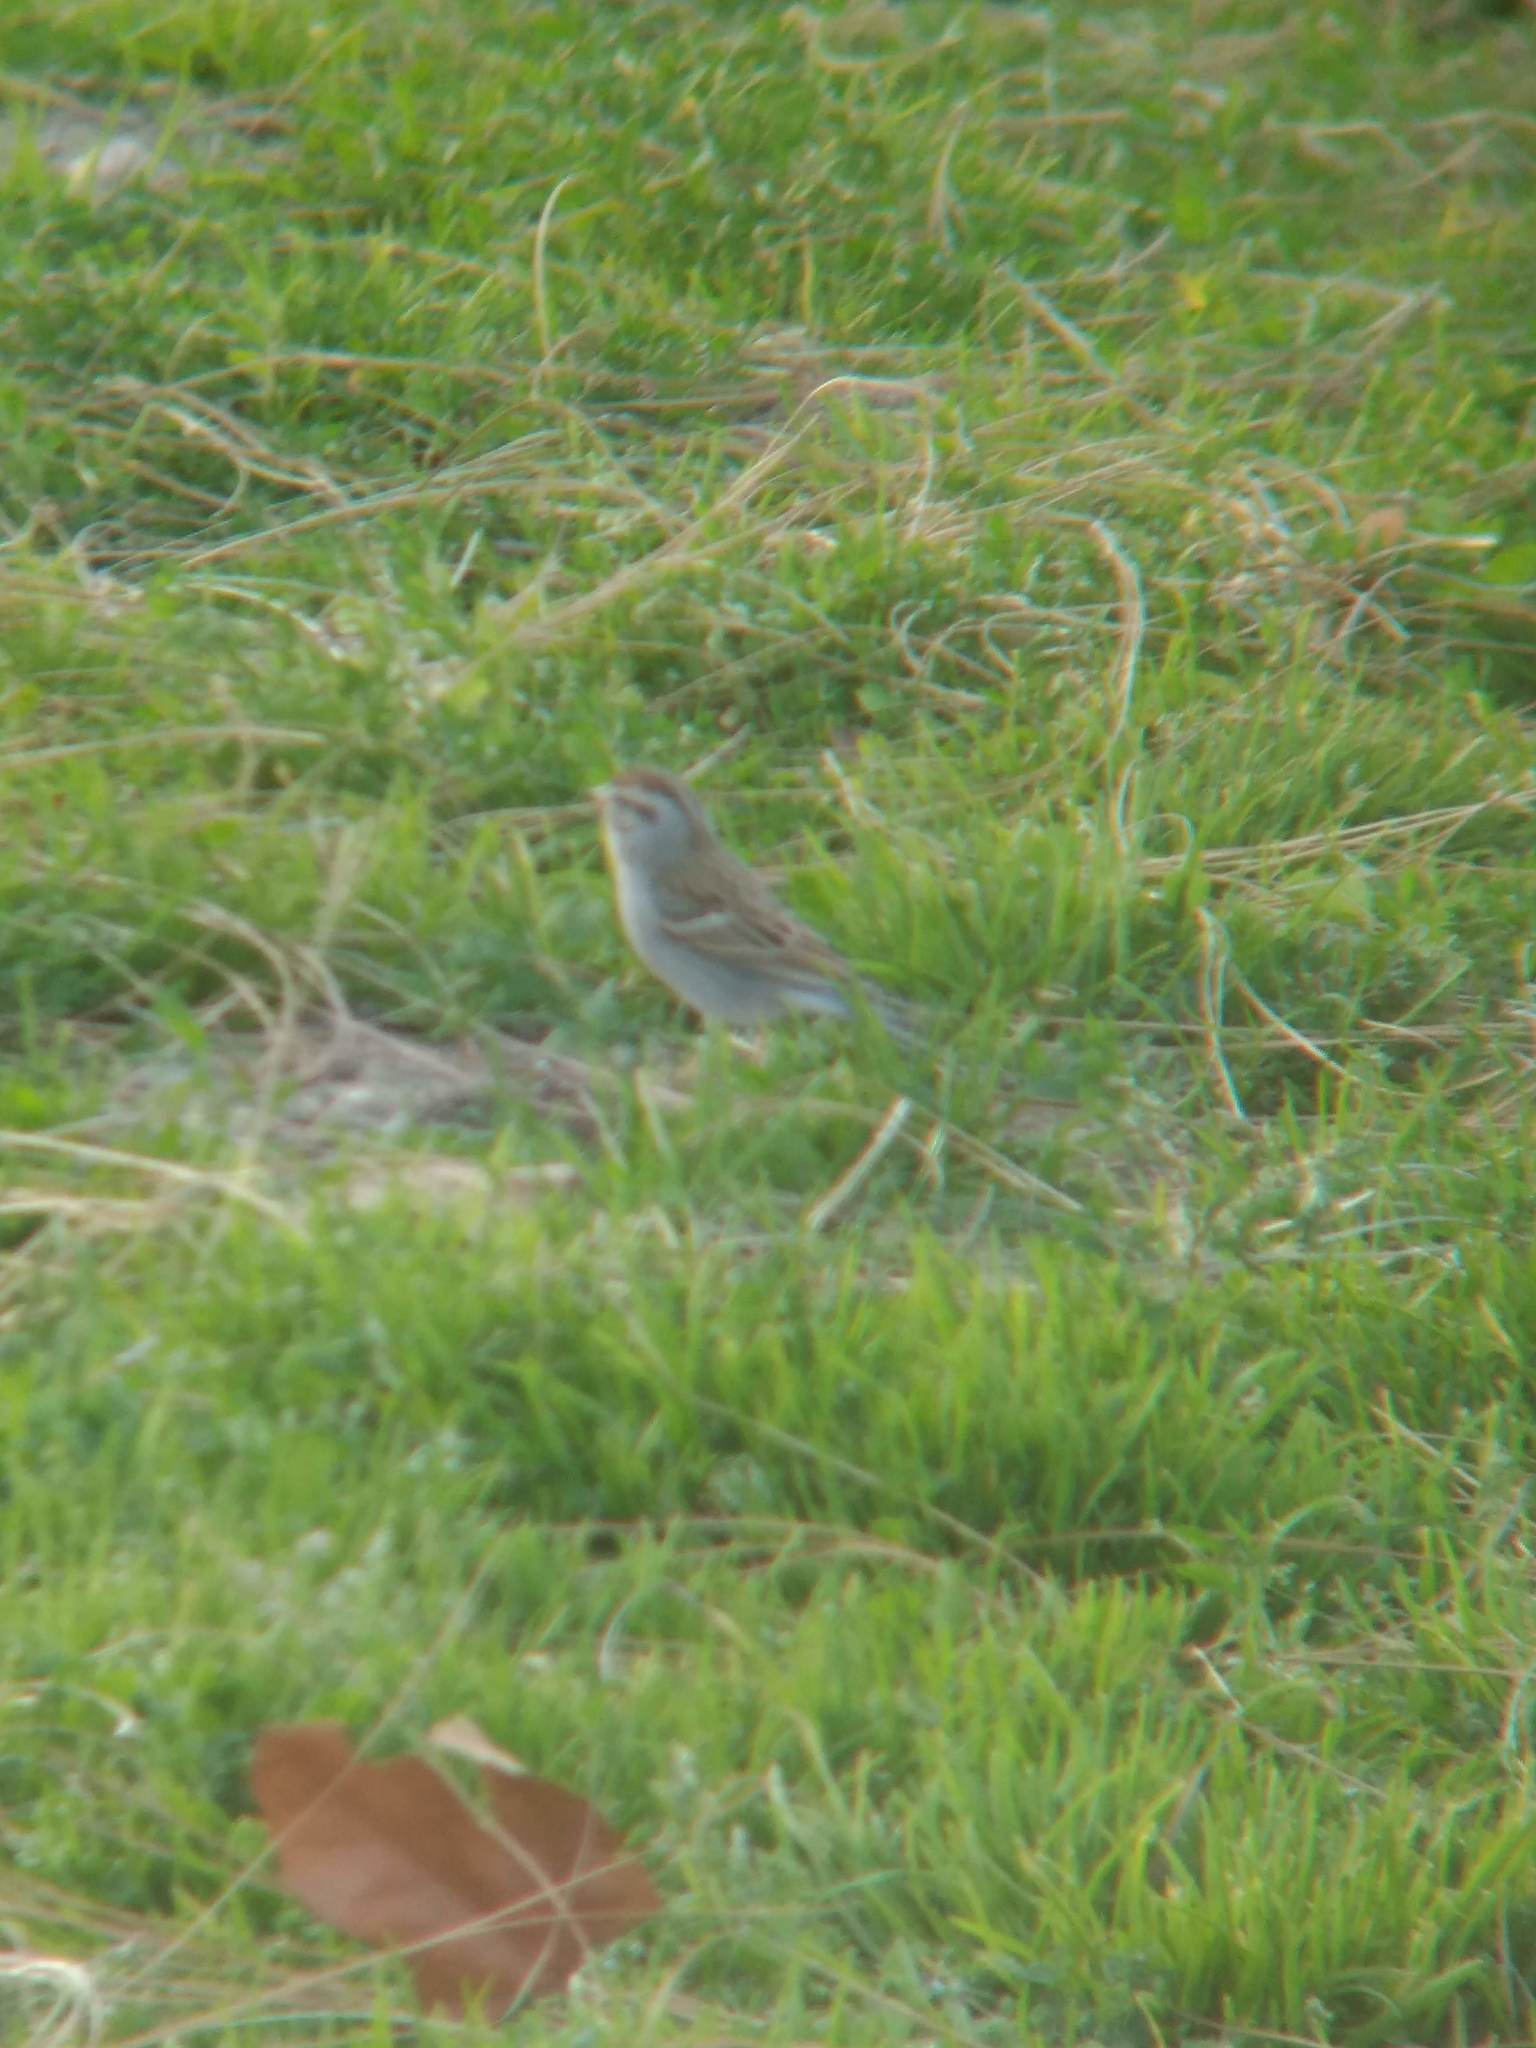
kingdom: Animalia
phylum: Chordata
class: Aves
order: Passeriformes
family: Passerellidae
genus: Spizella
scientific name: Spizella passerina
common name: Chipping sparrow
